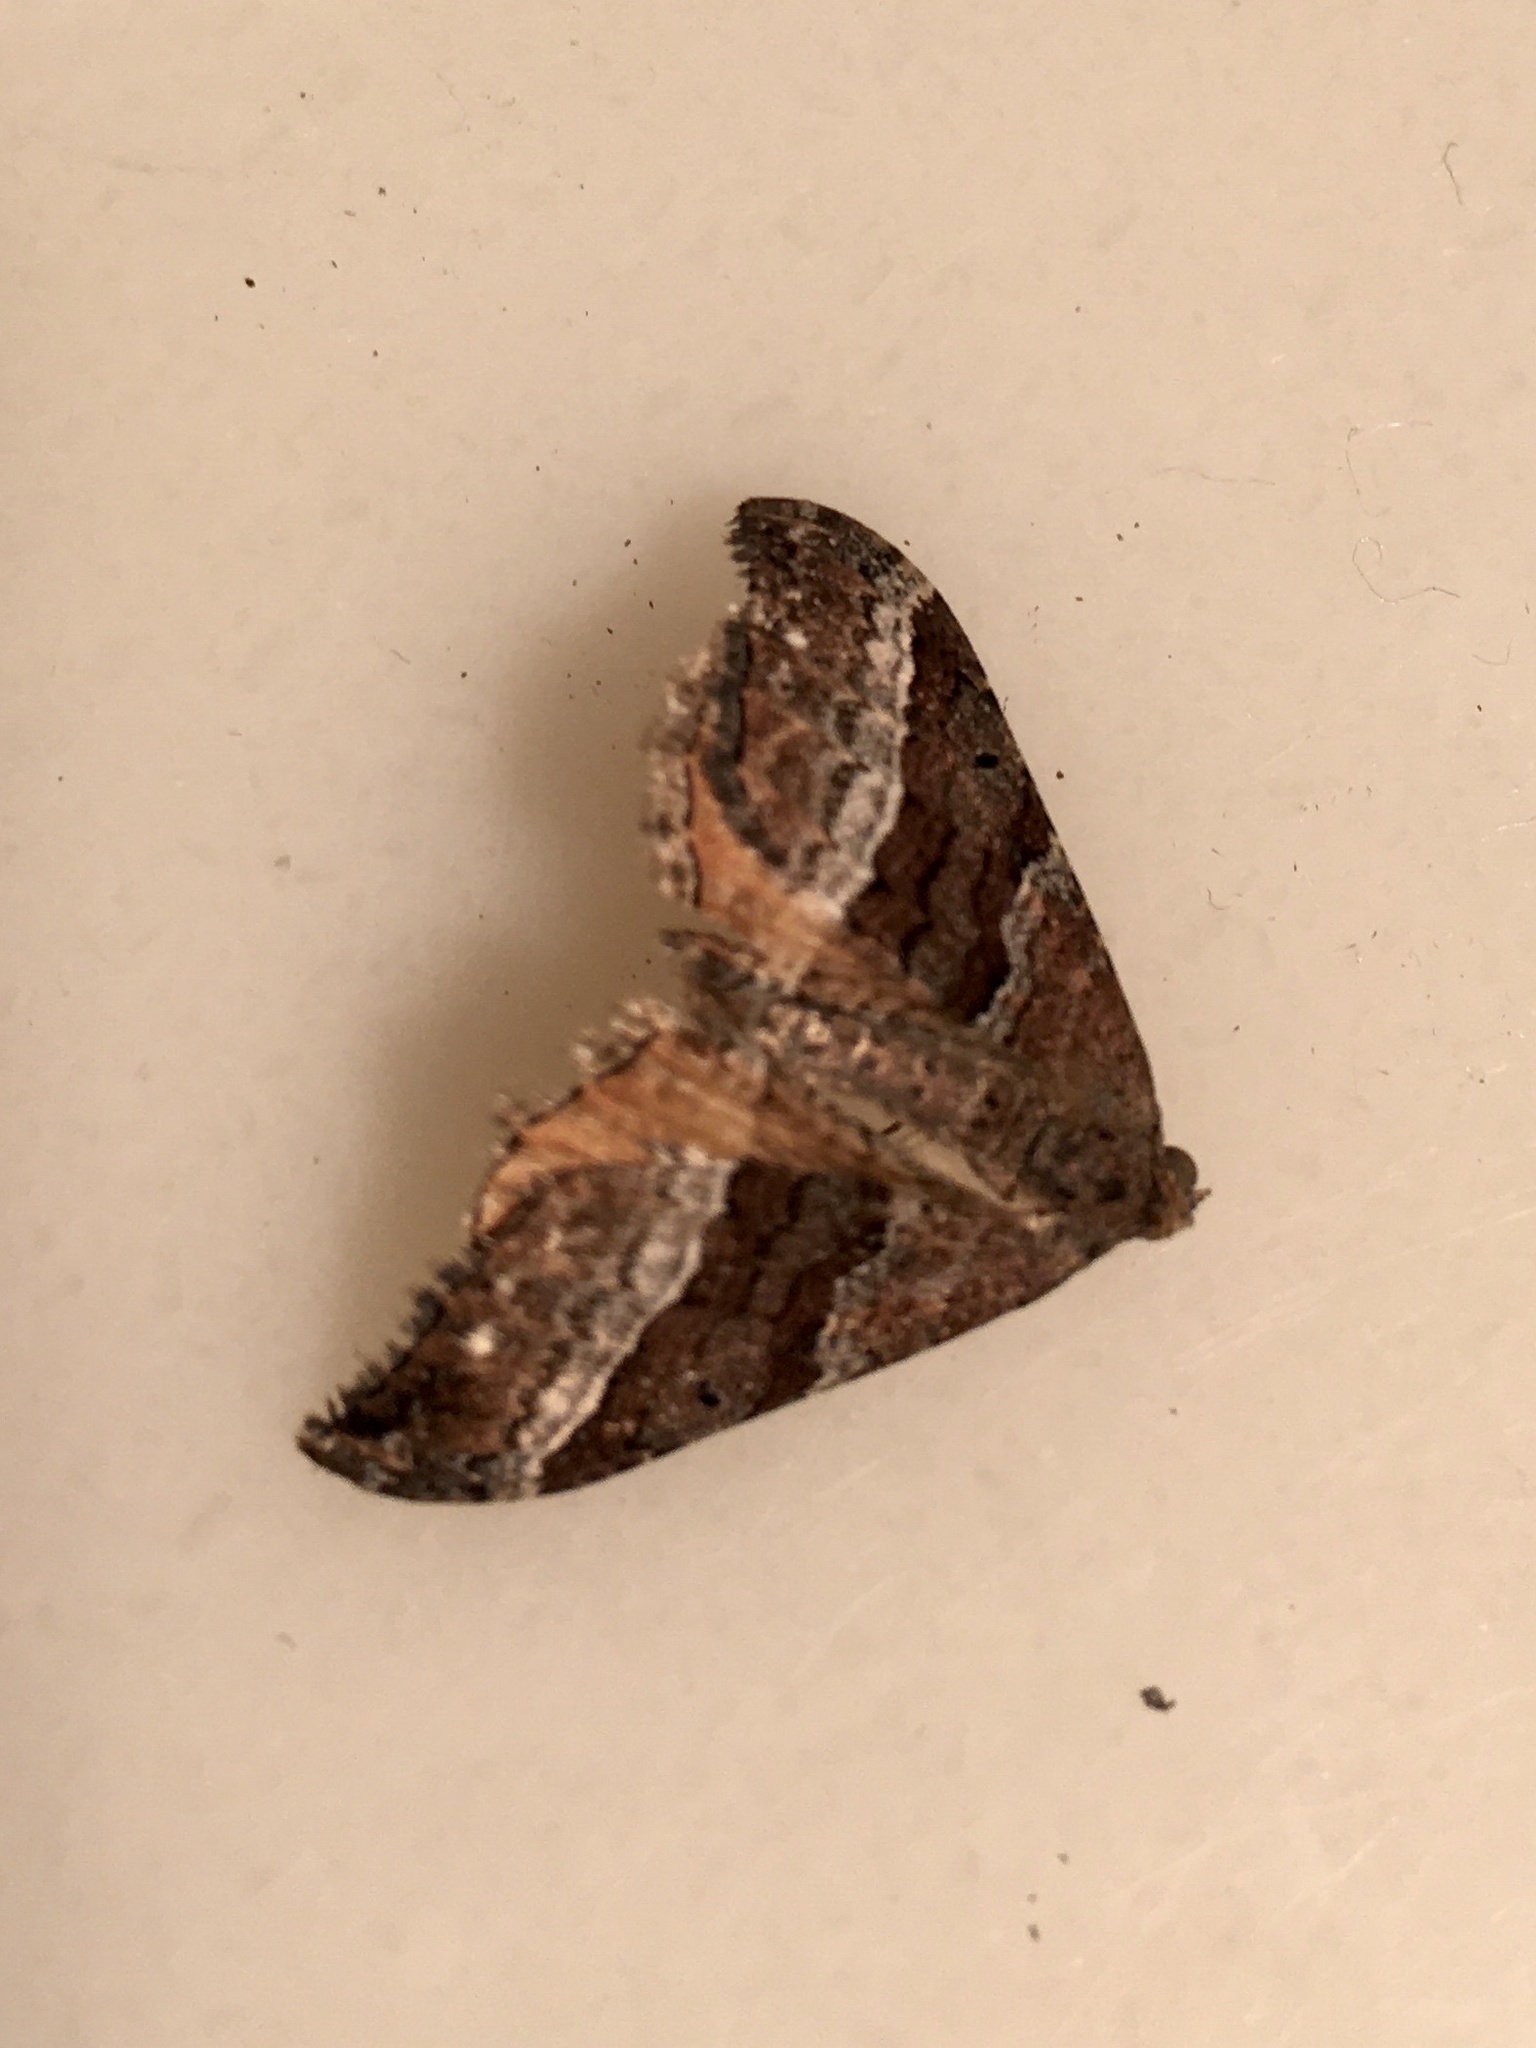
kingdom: Animalia
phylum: Arthropoda
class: Insecta
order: Lepidoptera
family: Geometridae
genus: Hydriomena
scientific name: Hydriomena deltoidata
